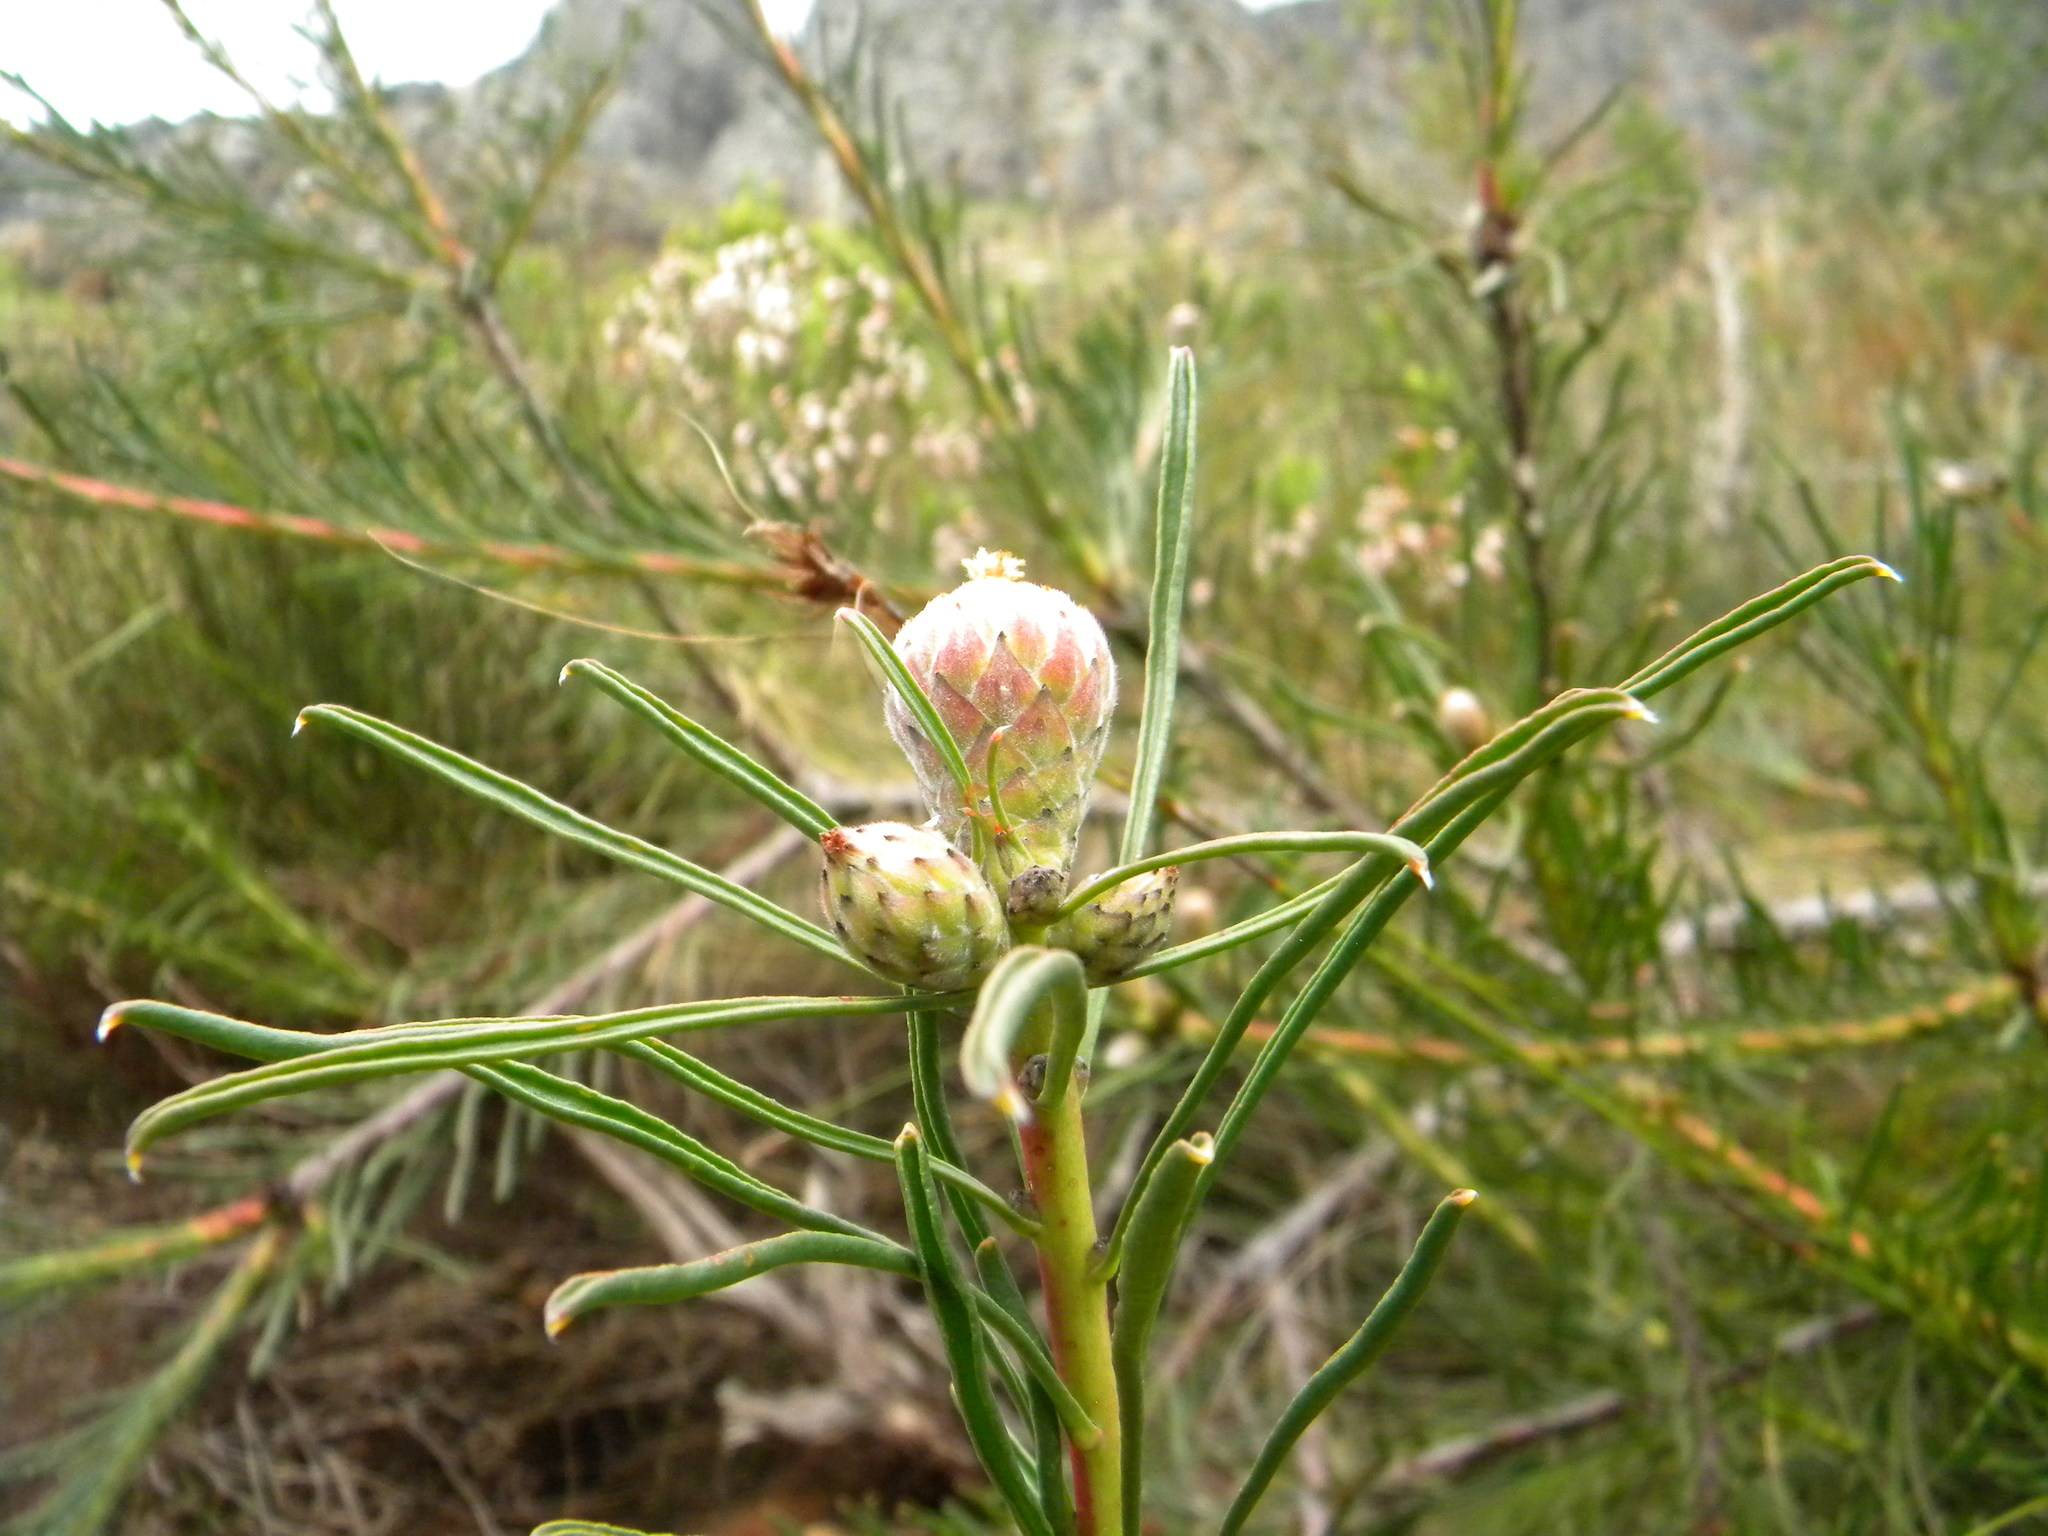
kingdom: Plantae
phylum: Tracheophyta
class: Magnoliopsida
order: Proteales
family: Proteaceae
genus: Leucospermum
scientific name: Leucospermum lineare
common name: Needle-leaf pincushion
